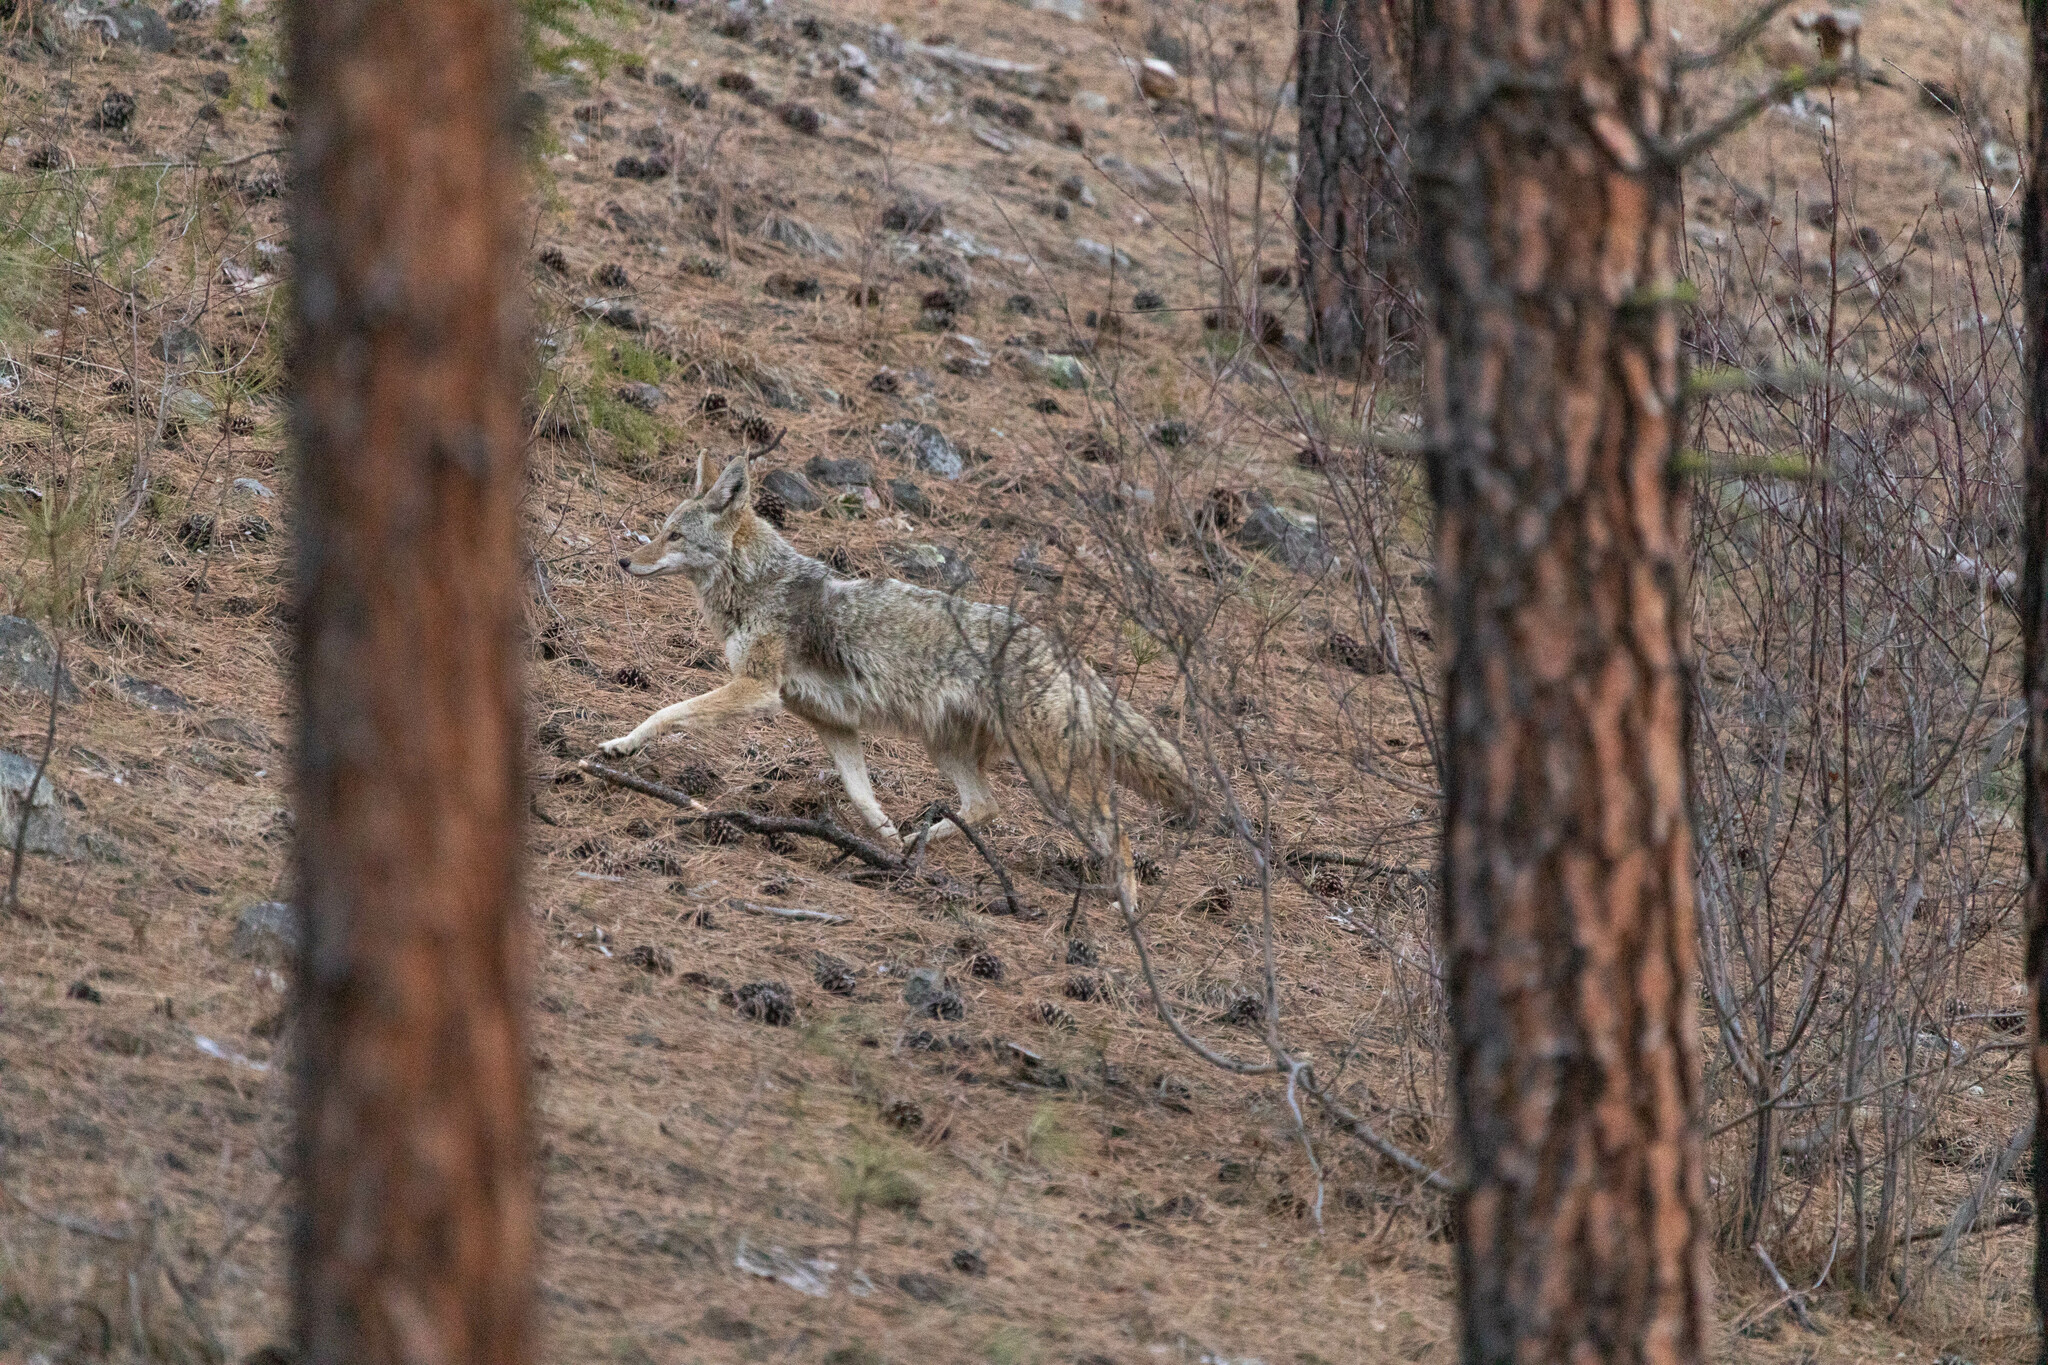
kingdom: Animalia
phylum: Chordata
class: Mammalia
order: Carnivora
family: Canidae
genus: Canis
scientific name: Canis latrans
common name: Coyote
